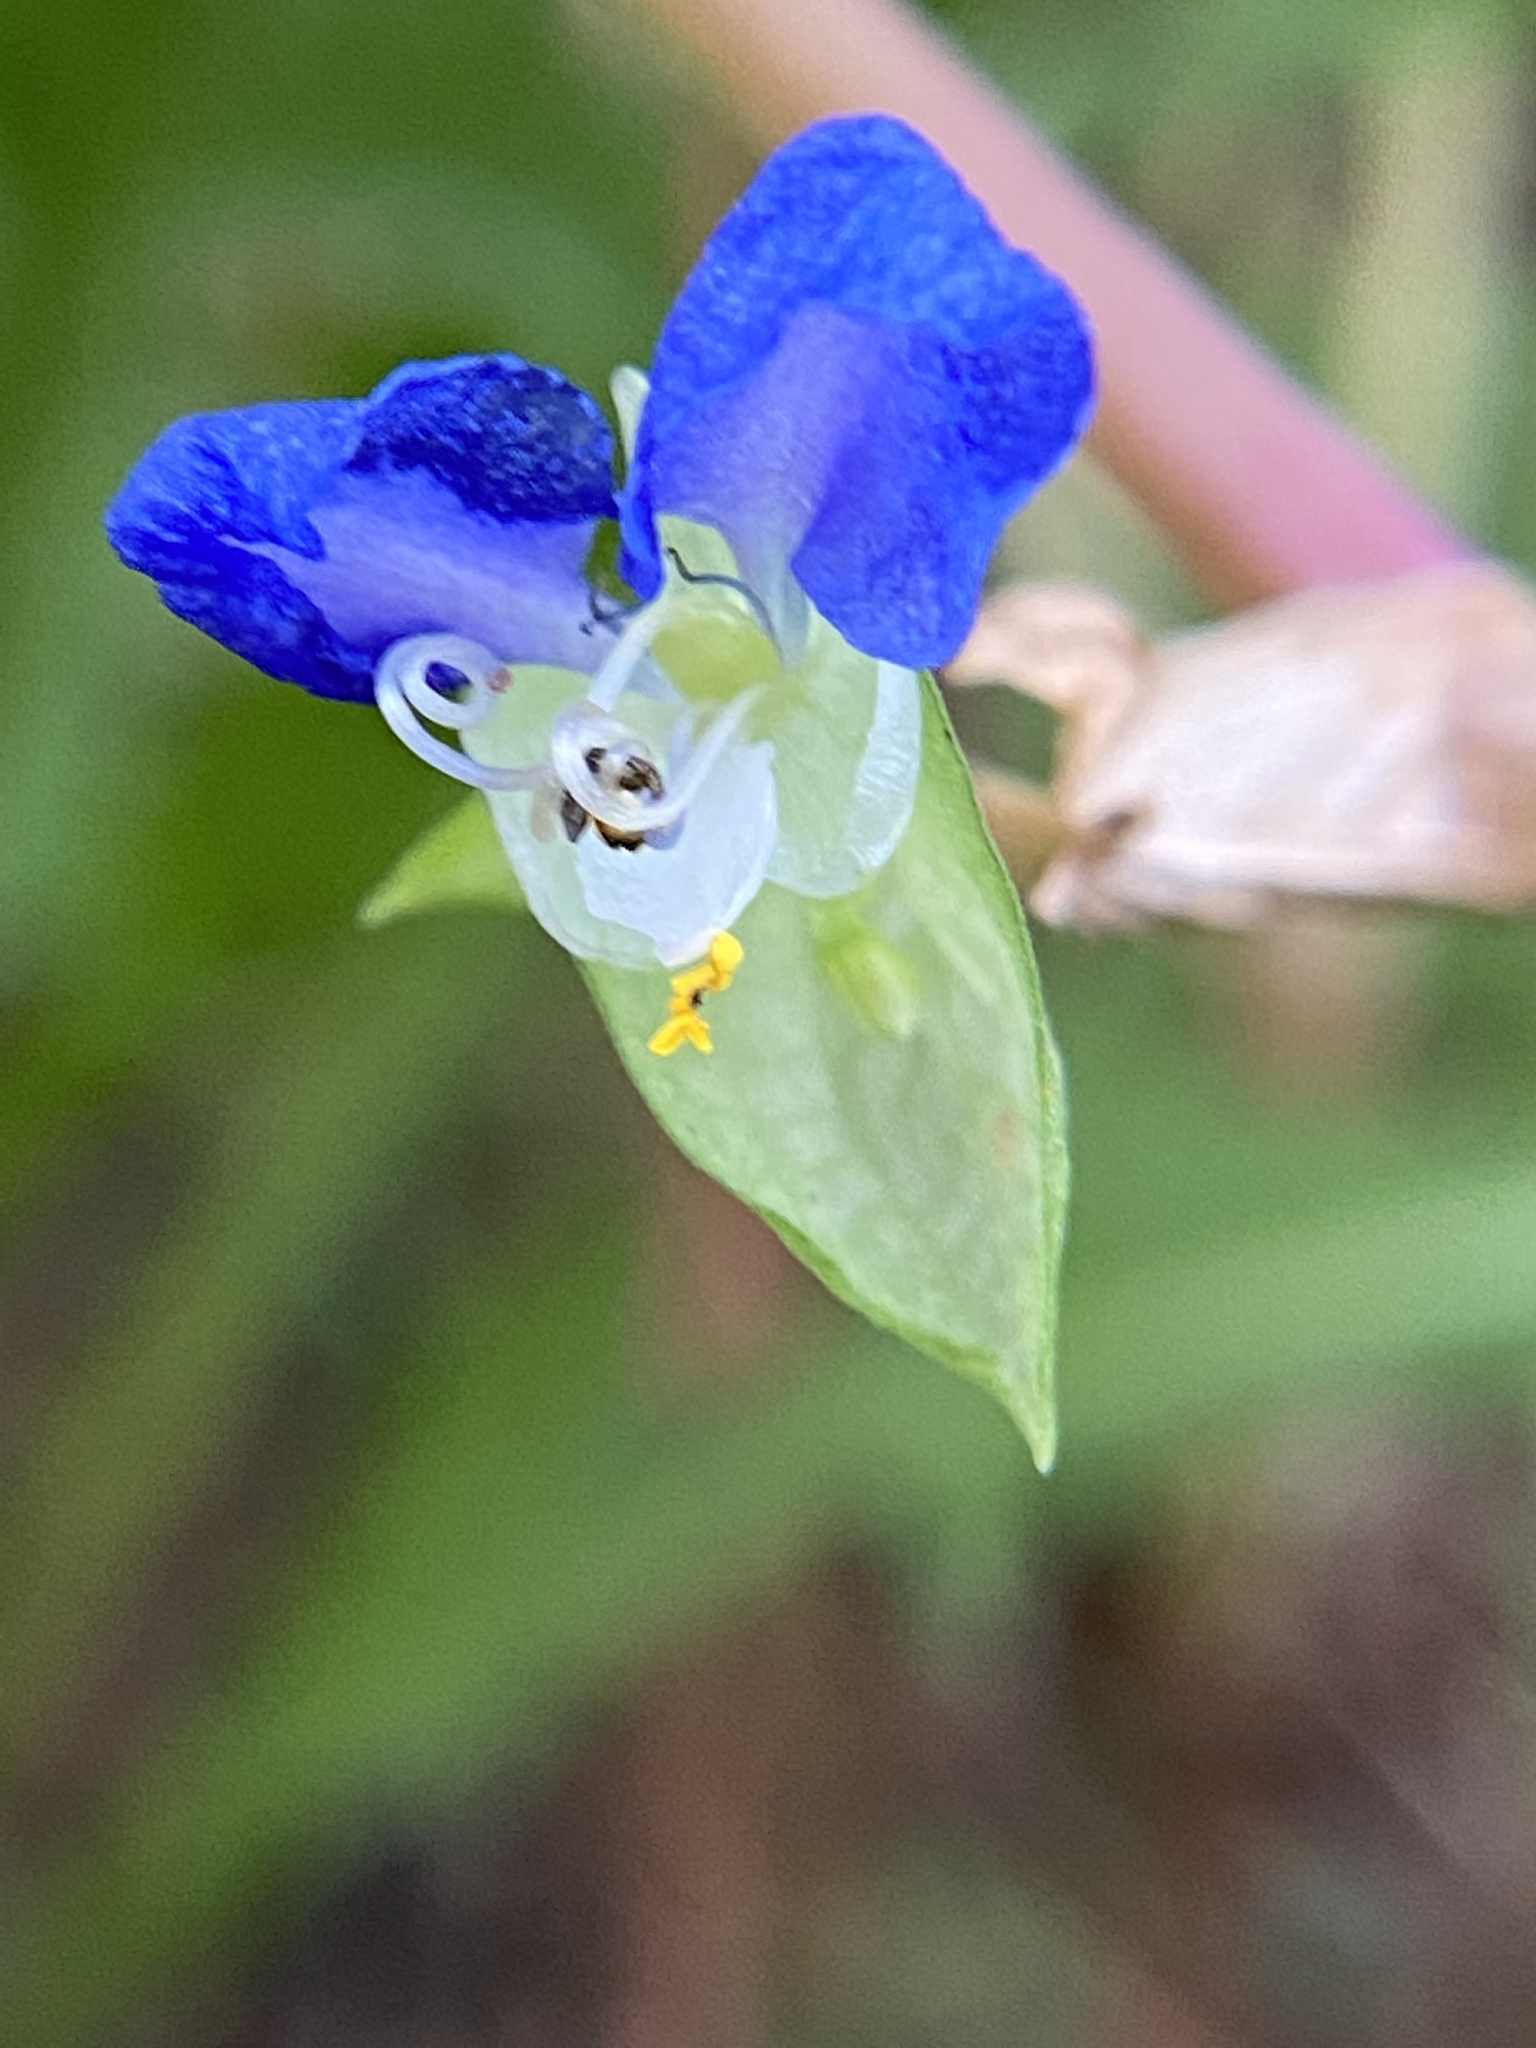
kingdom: Plantae
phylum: Tracheophyta
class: Liliopsida
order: Commelinales
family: Commelinaceae
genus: Commelina
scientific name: Commelina communis
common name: Asiatic dayflower
